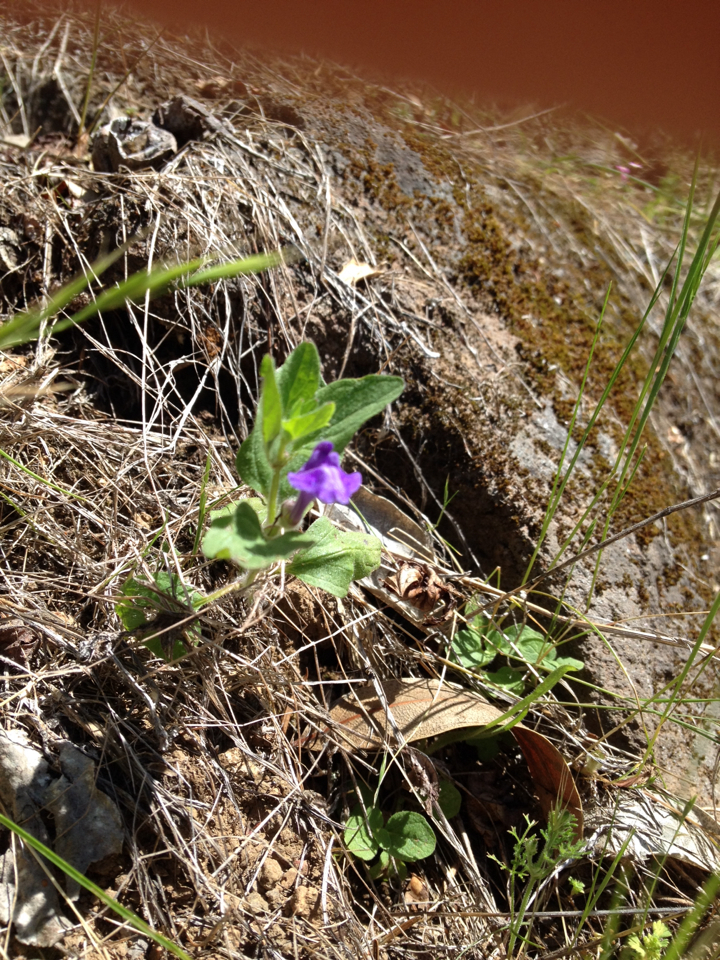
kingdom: Plantae
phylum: Tracheophyta
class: Magnoliopsida
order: Lamiales
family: Lamiaceae
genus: Scutellaria
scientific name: Scutellaria tuberosa
